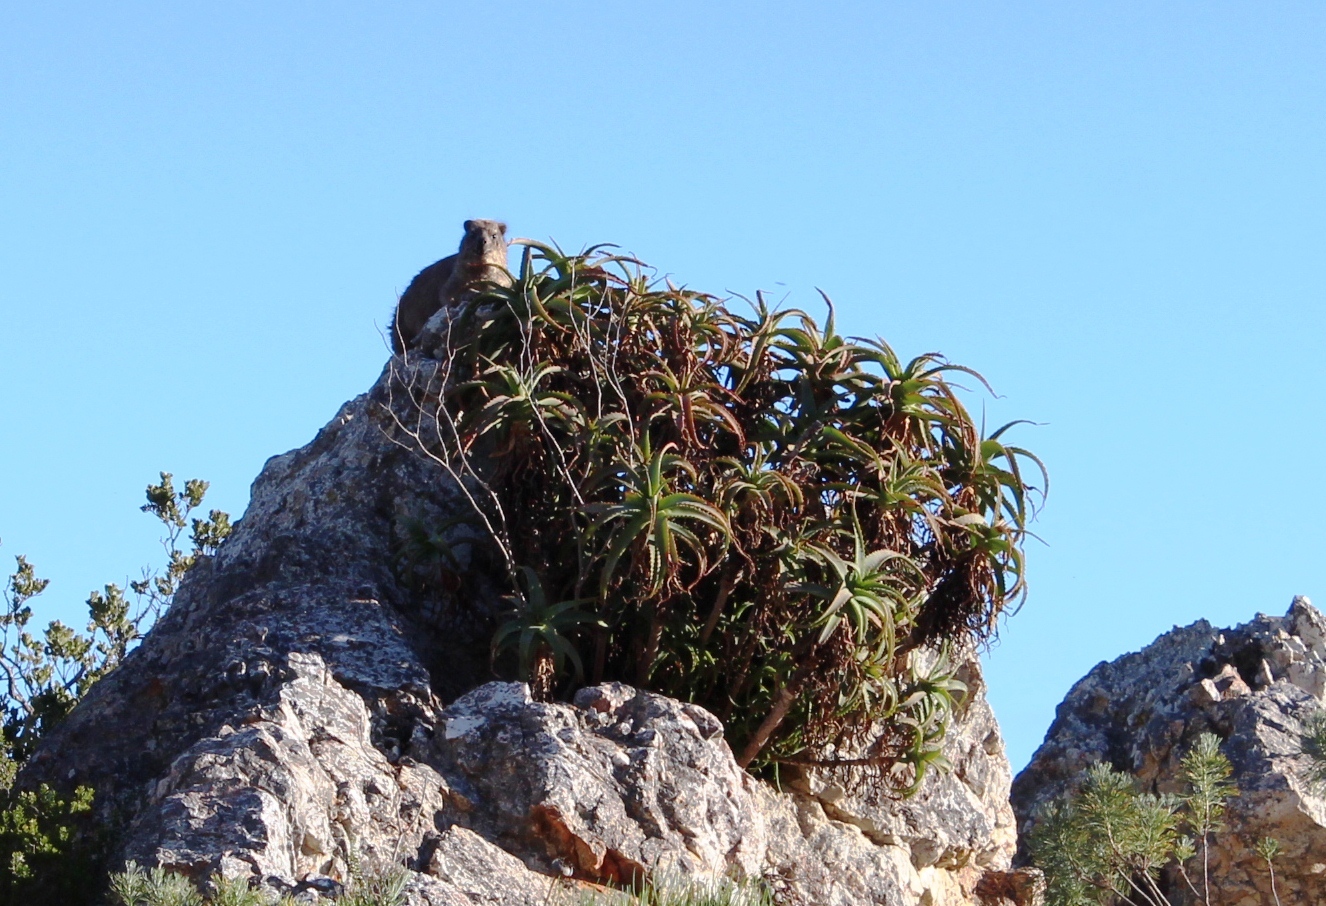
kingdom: Plantae
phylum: Tracheophyta
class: Liliopsida
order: Asparagales
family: Asphodelaceae
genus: Aloe
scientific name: Aloe arborescens
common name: Candelabra aloe
